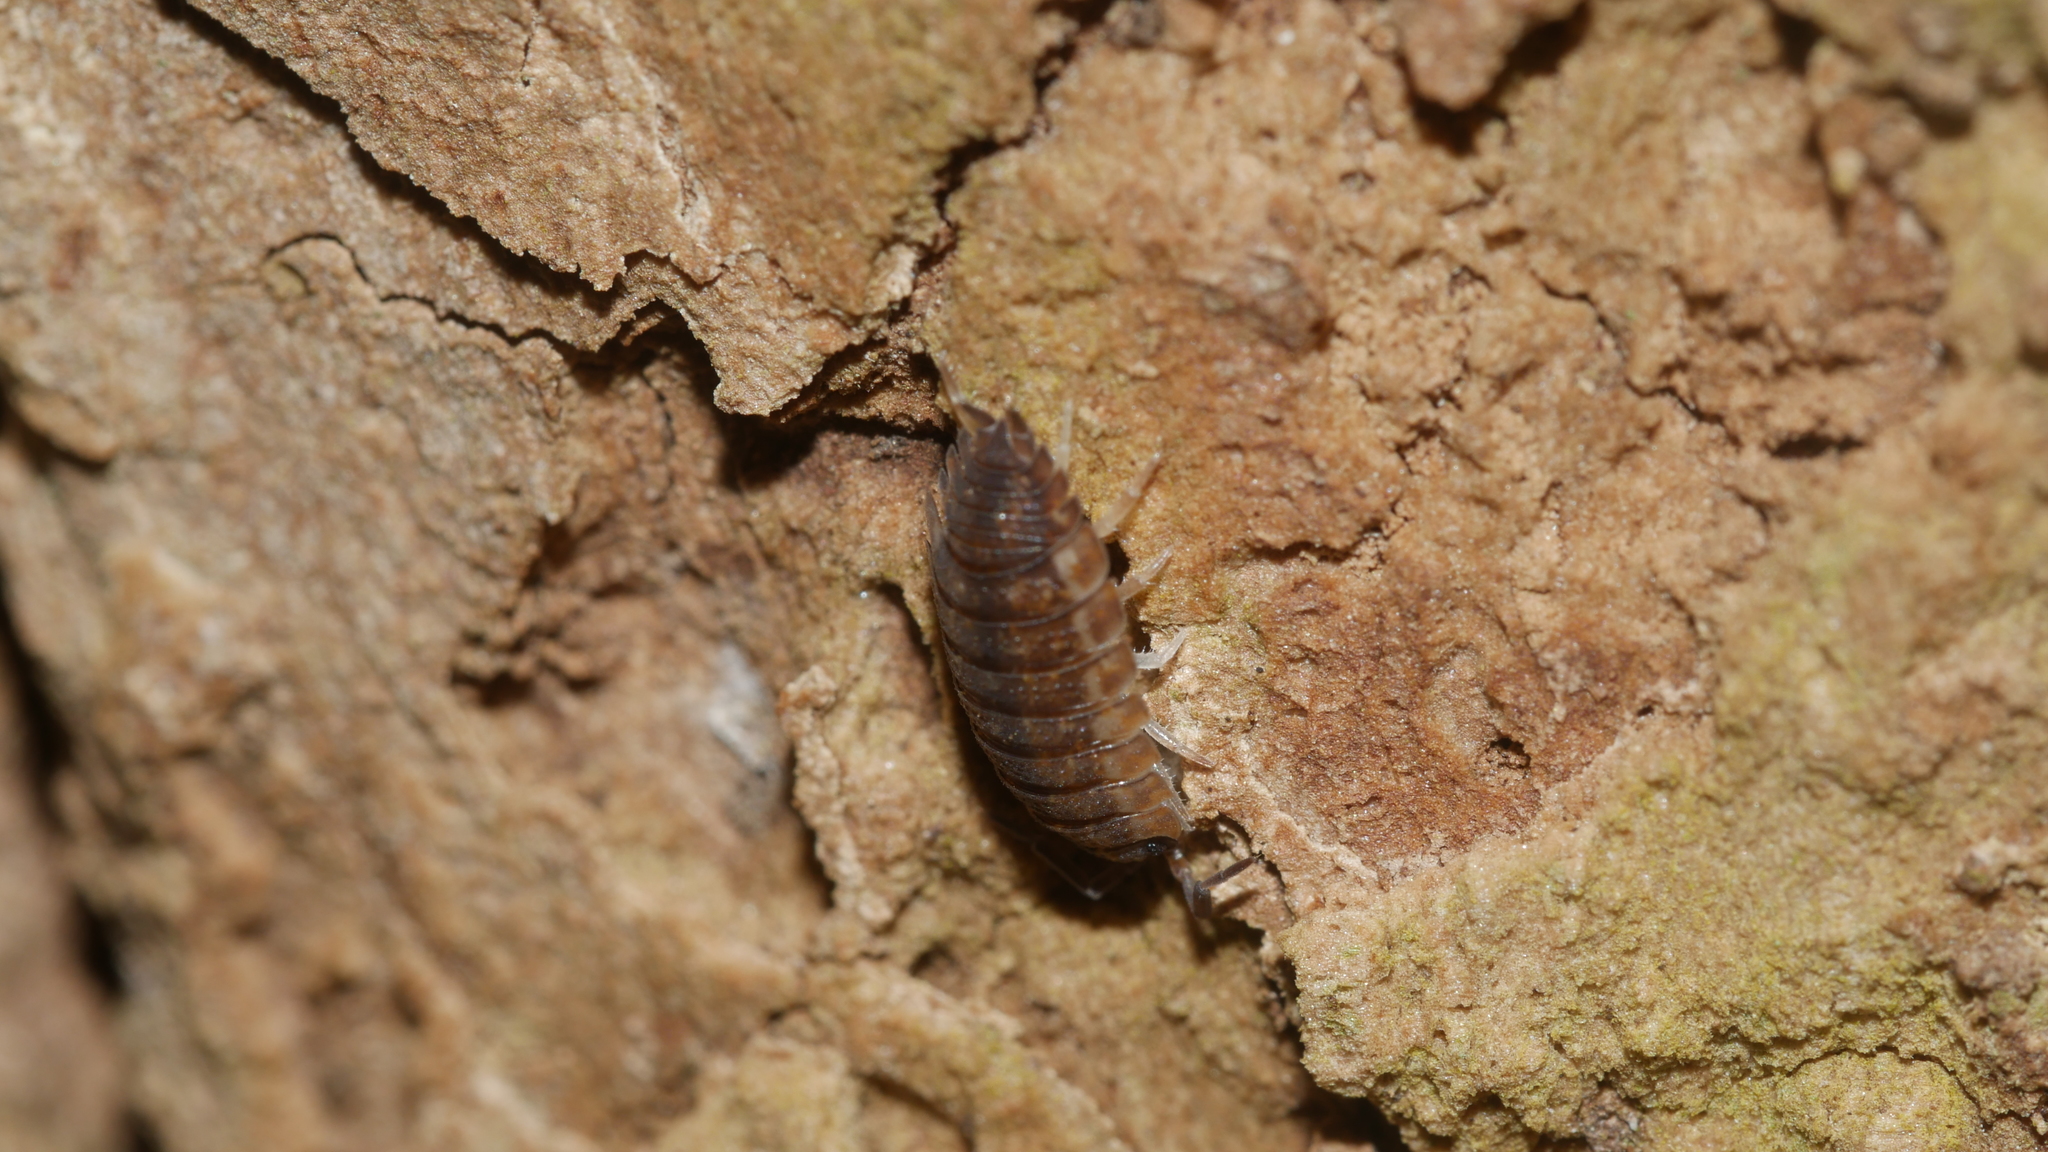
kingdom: Animalia
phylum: Arthropoda
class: Malacostraca
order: Isopoda
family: Porcellionidae
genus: Porcellio
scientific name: Porcellio scaber
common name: Common rough woodlouse
